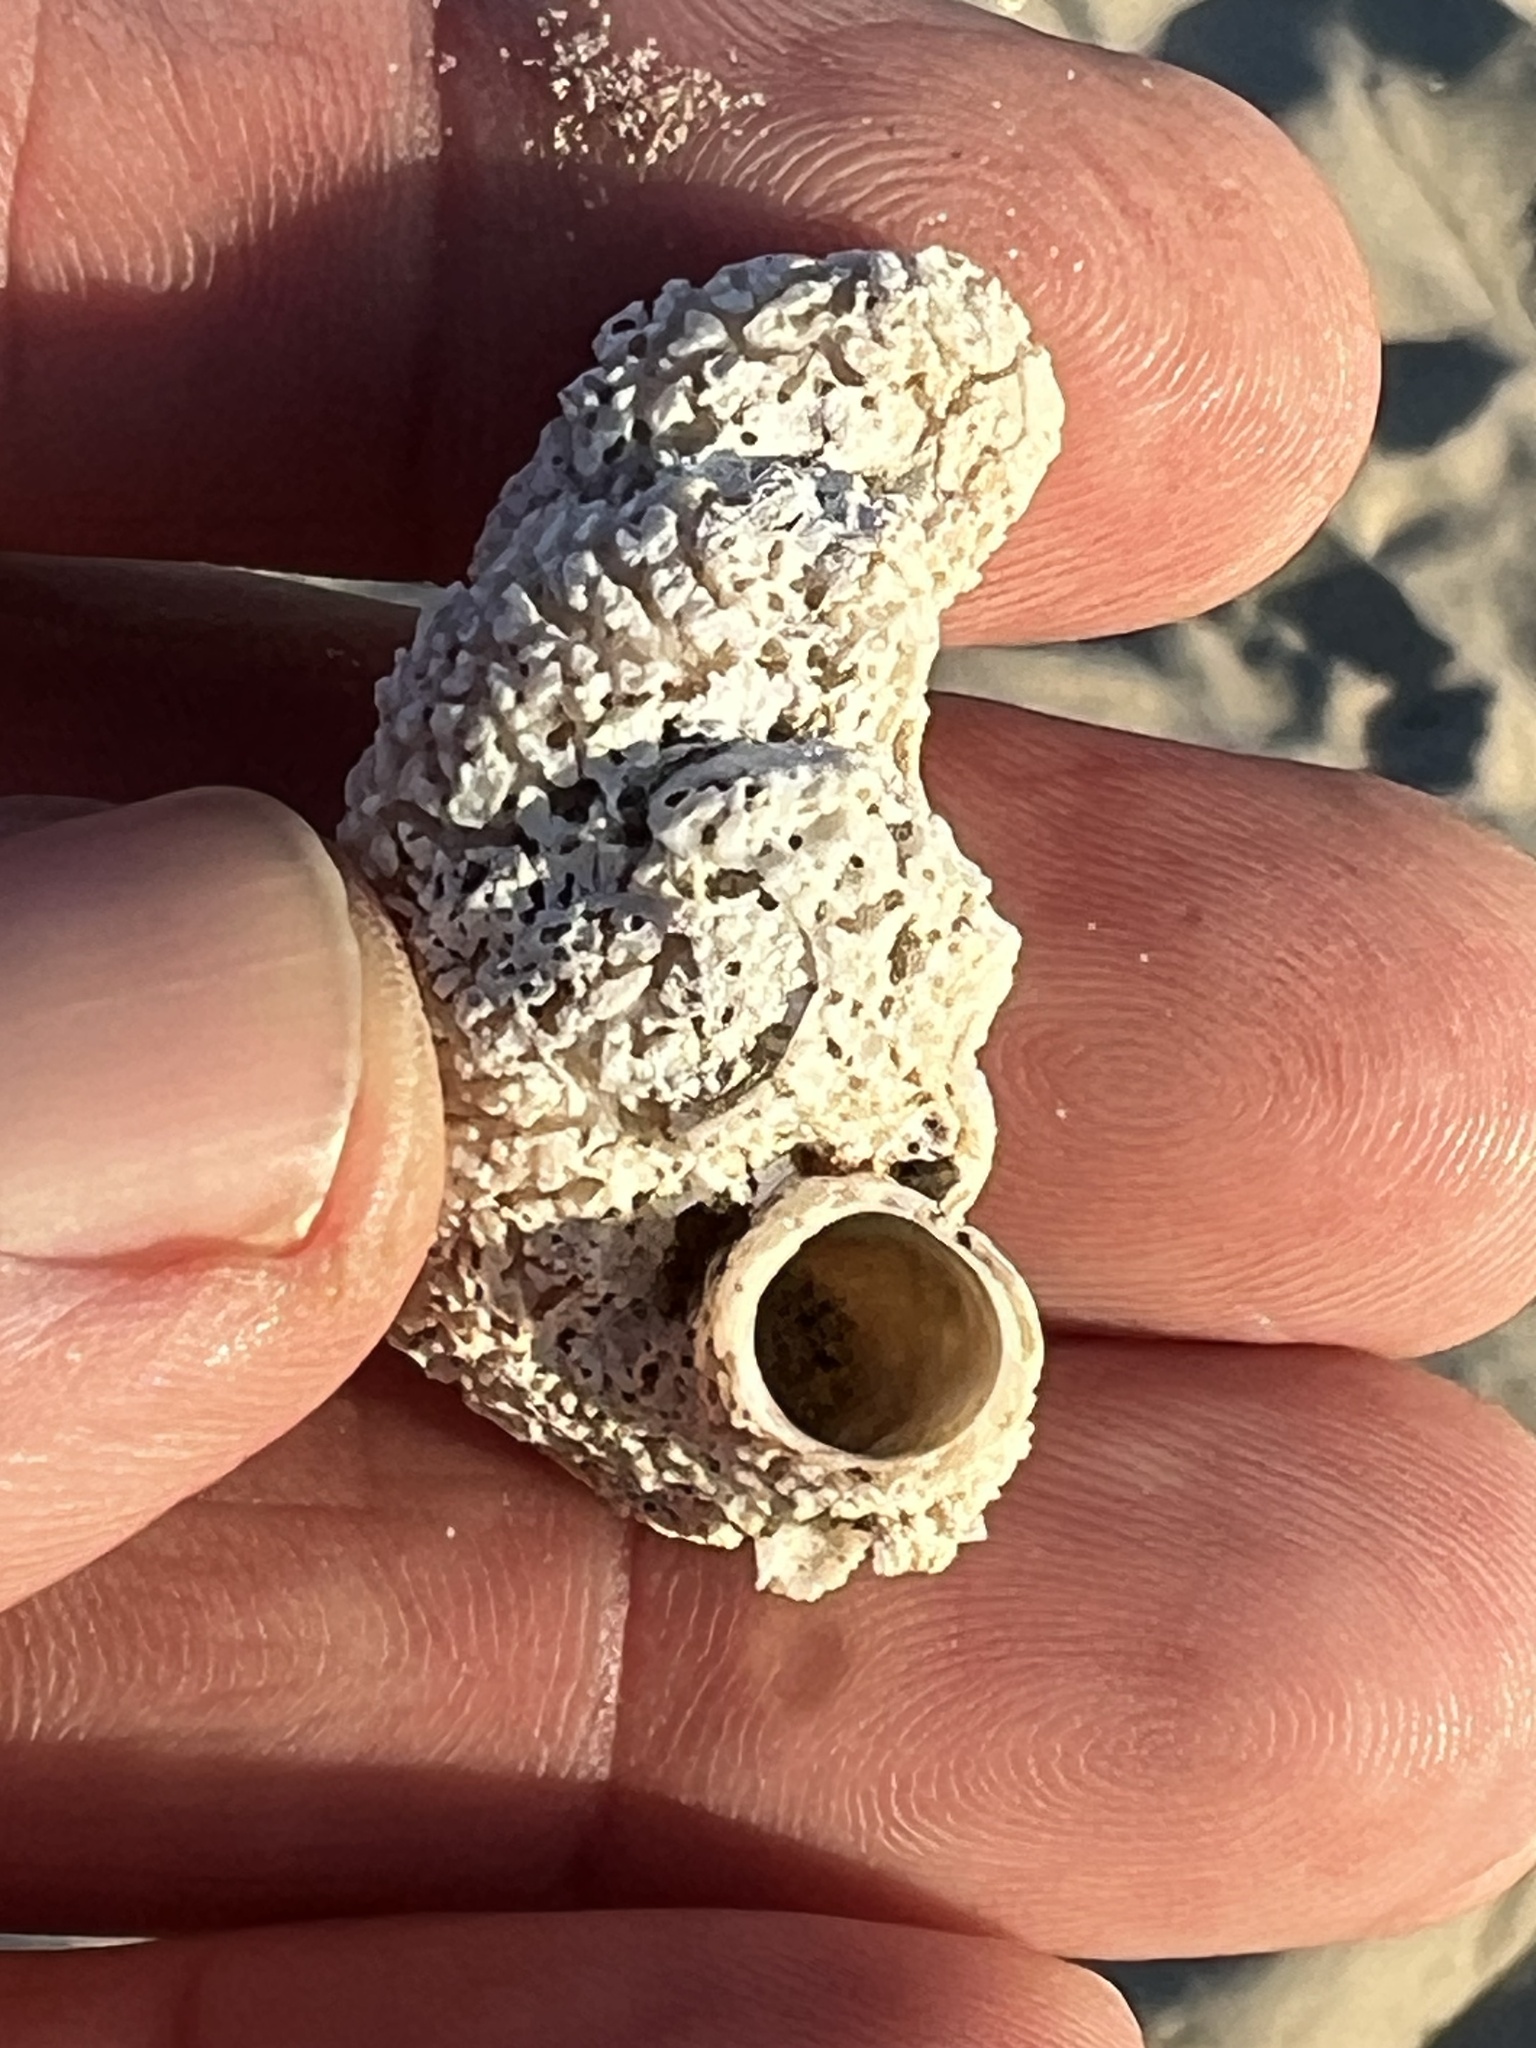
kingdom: Animalia
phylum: Mollusca
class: Gastropoda
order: Littorinimorpha
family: Vermetidae
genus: Thylacodes
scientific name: Thylacodes squamigerus
